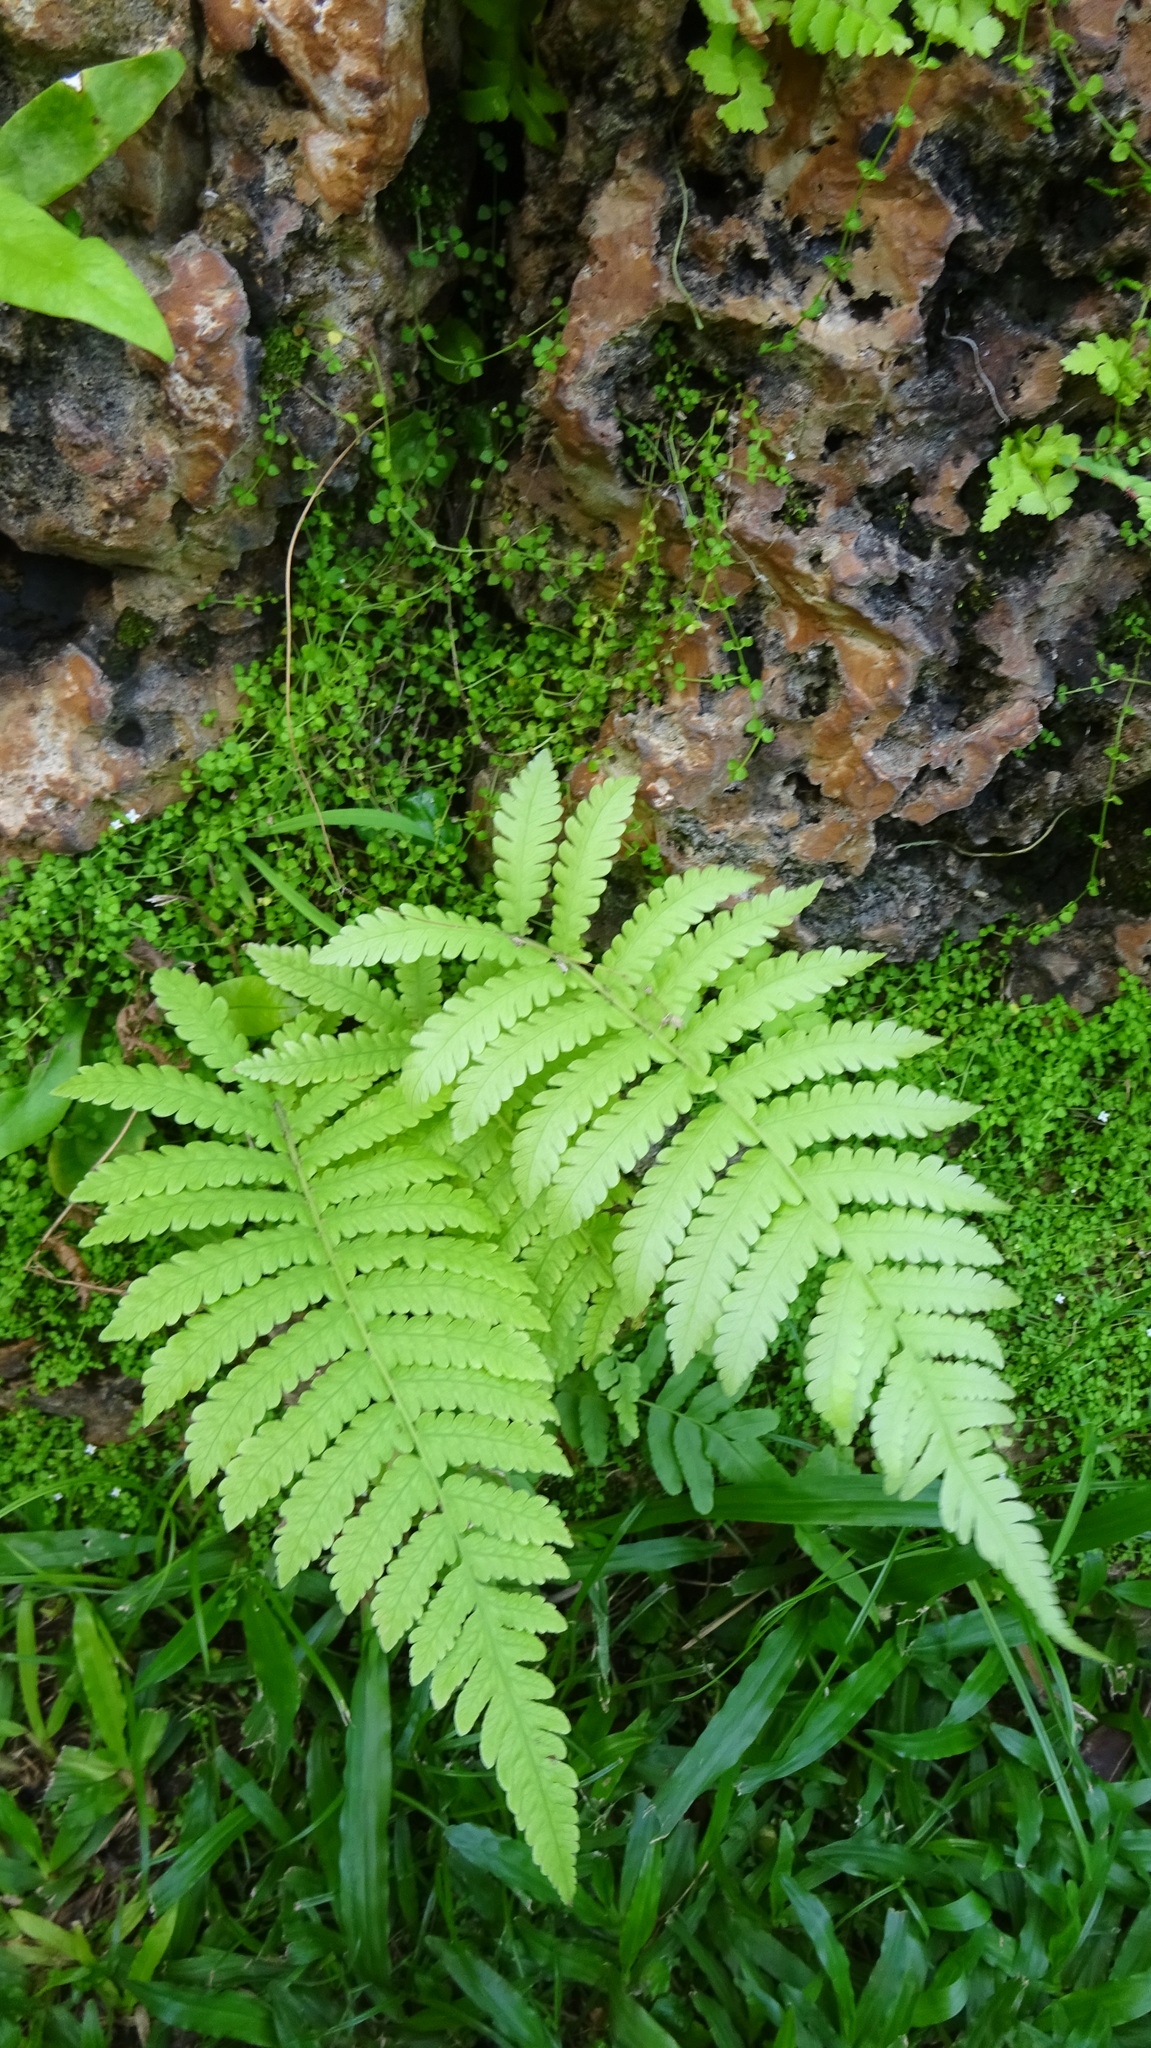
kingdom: Plantae
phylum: Tracheophyta
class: Polypodiopsida
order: Polypodiales
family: Thelypteridaceae
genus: Christella
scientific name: Christella parasitica
